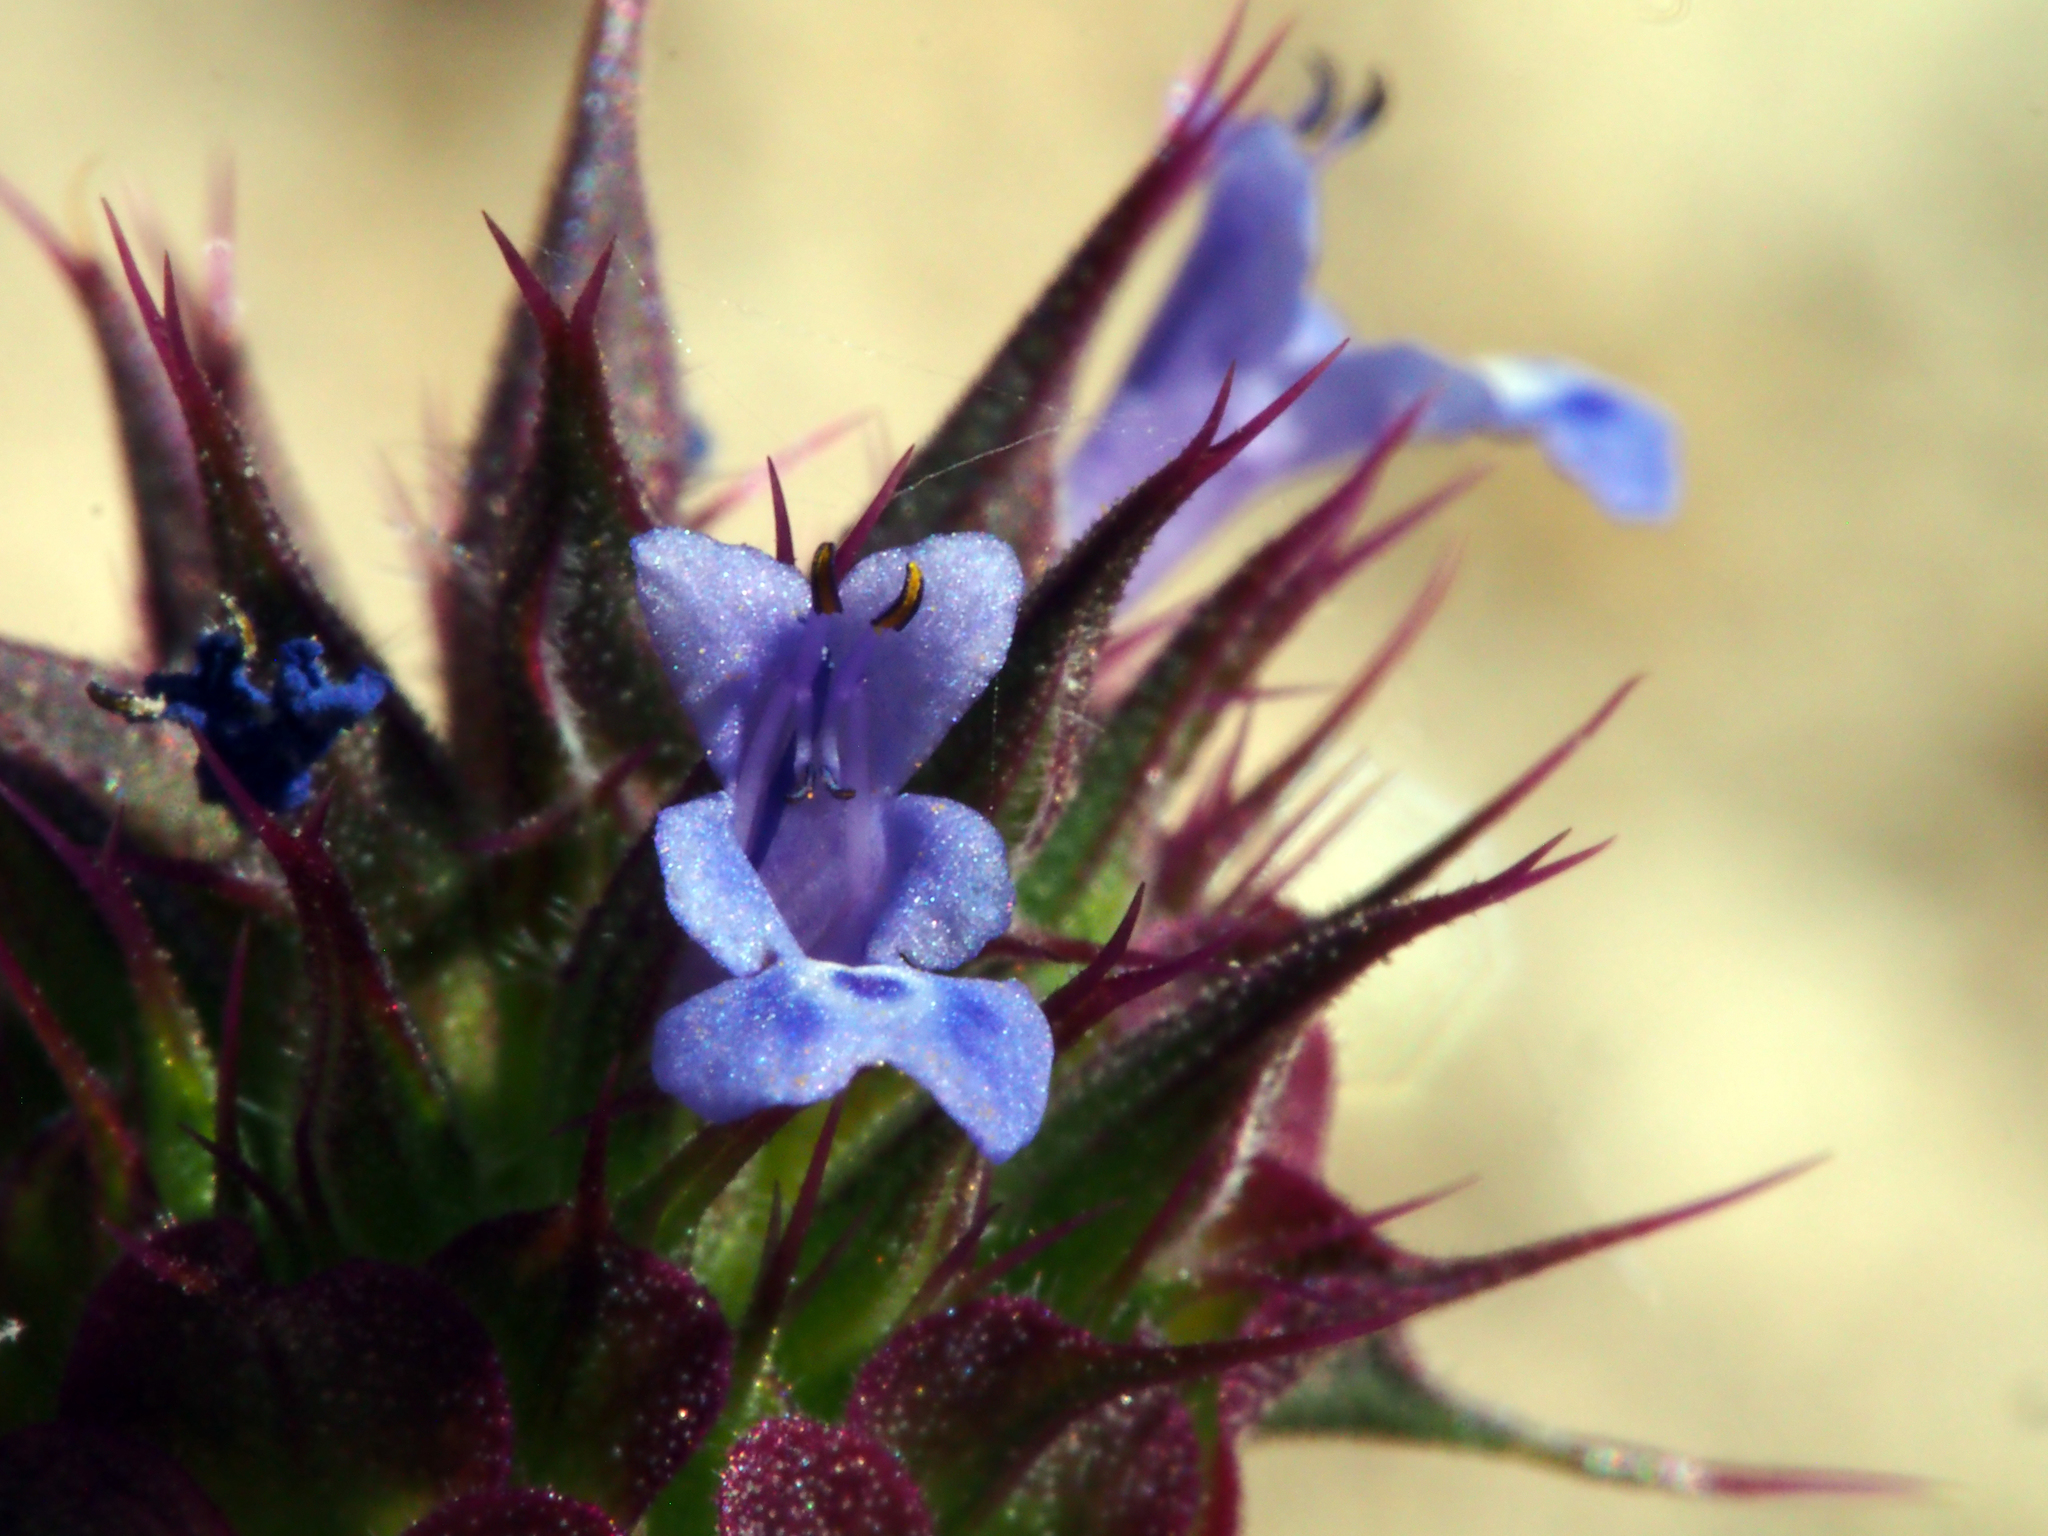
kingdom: Plantae
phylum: Tracheophyta
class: Magnoliopsida
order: Lamiales
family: Lamiaceae
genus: Salvia
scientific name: Salvia columbariae
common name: Chia
